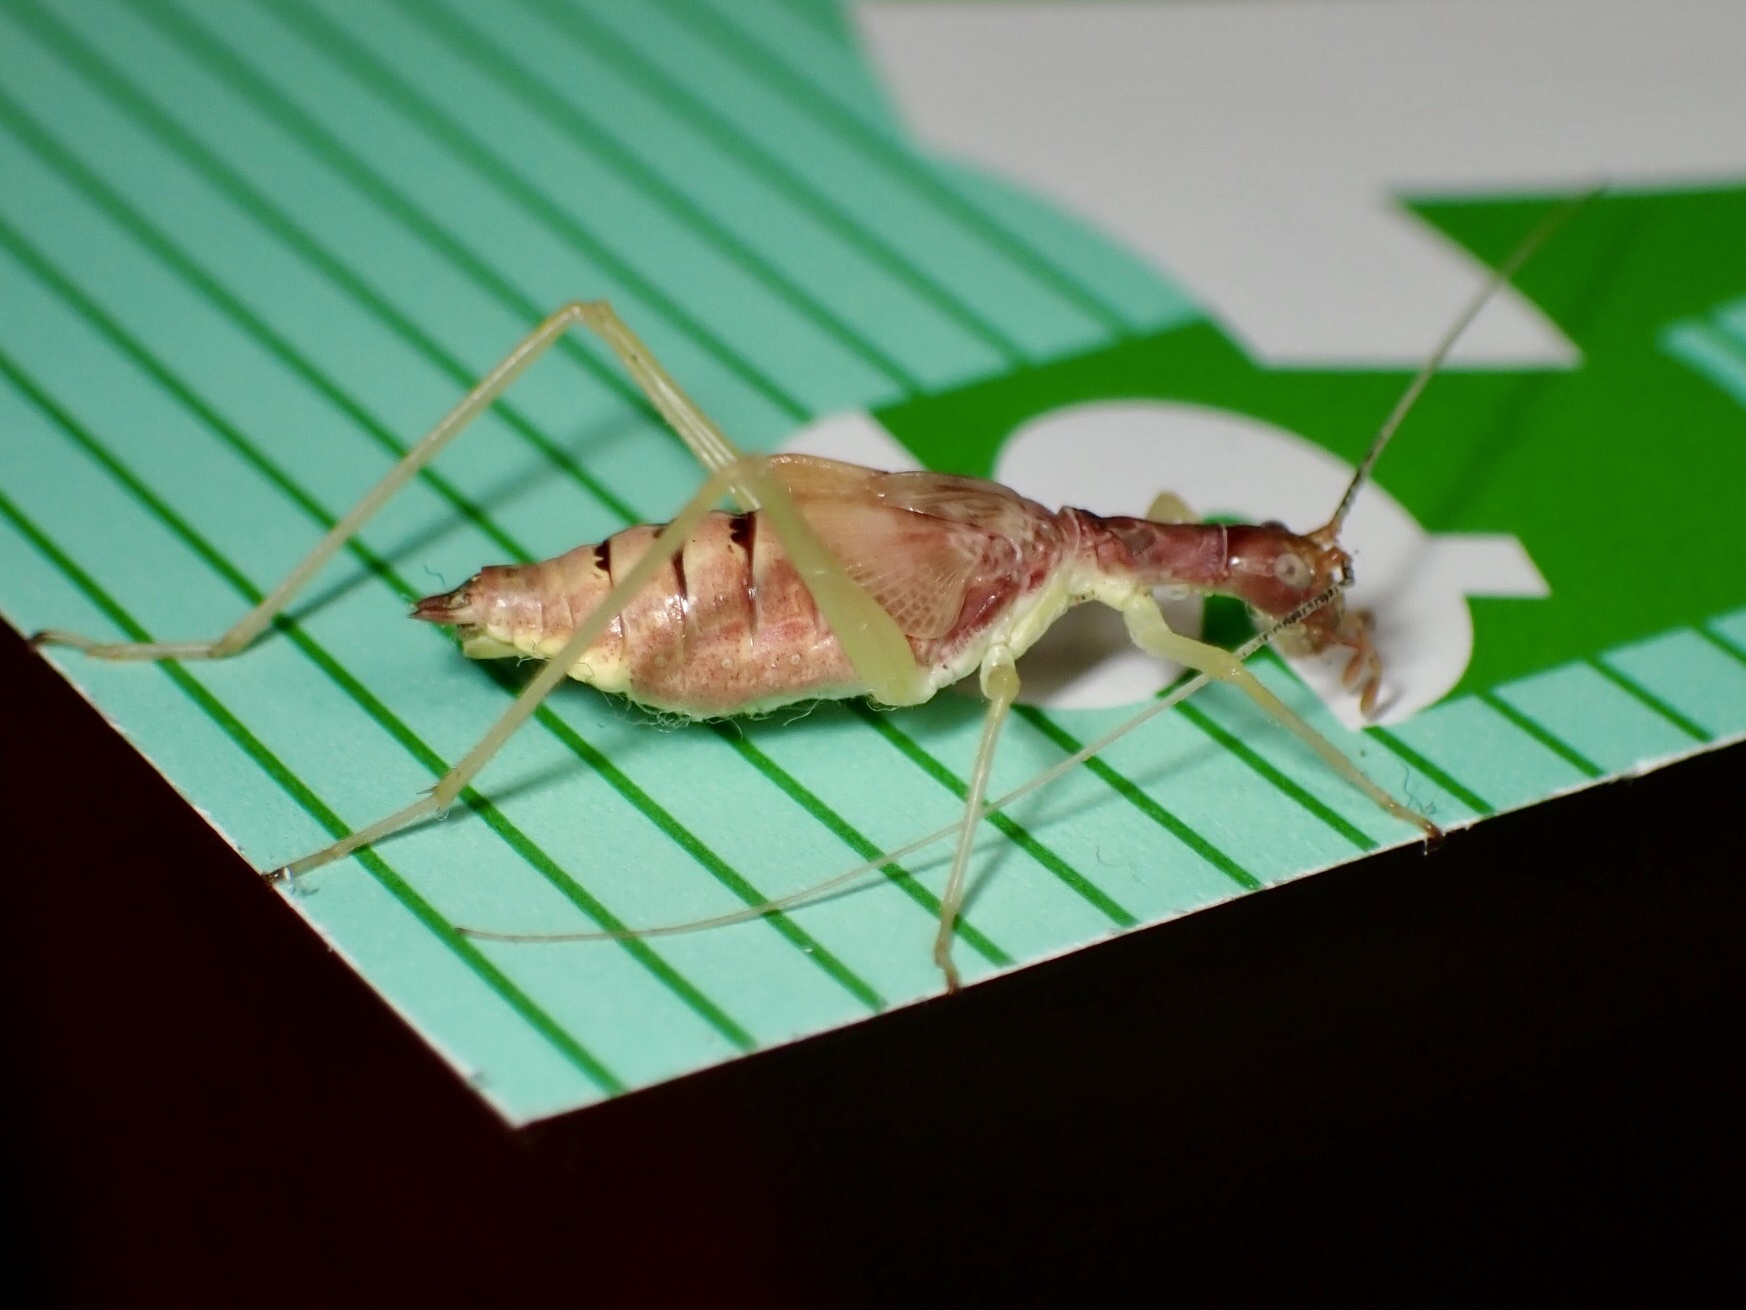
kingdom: Animalia
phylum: Arthropoda
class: Insecta
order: Orthoptera
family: Gryllidae
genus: Neoxabea
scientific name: Neoxabea bipunctata
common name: Two-spotted tree cricket
